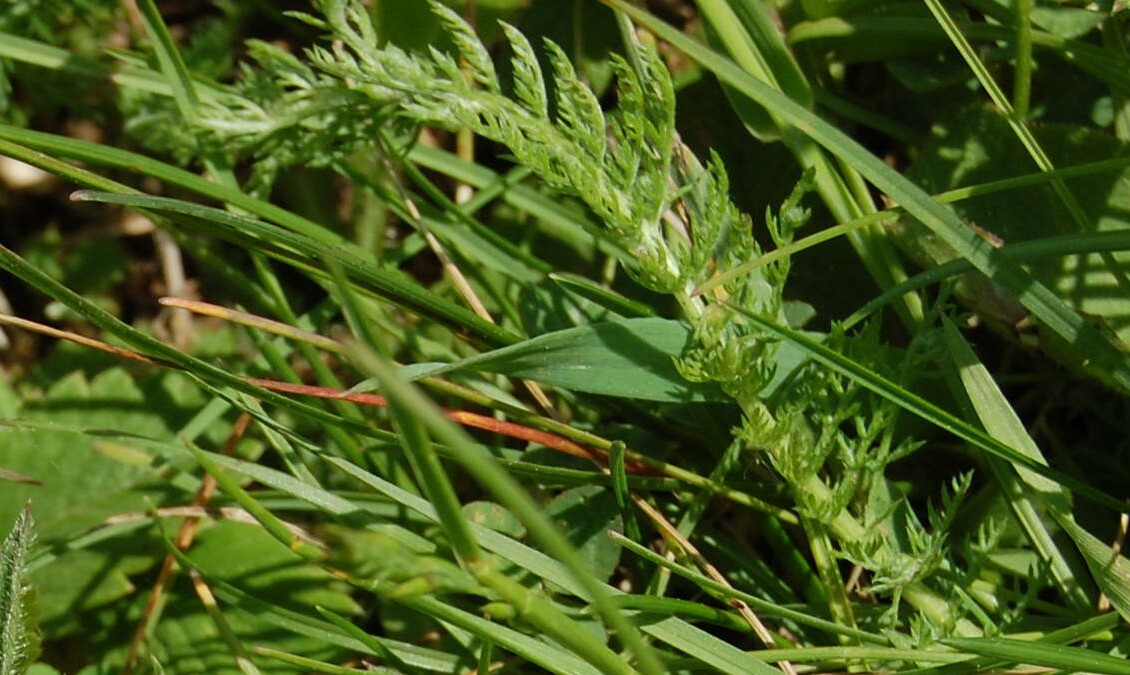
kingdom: Plantae
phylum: Tracheophyta
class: Magnoliopsida
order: Asterales
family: Asteraceae
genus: Achillea
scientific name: Achillea millefolium
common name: Yarrow
